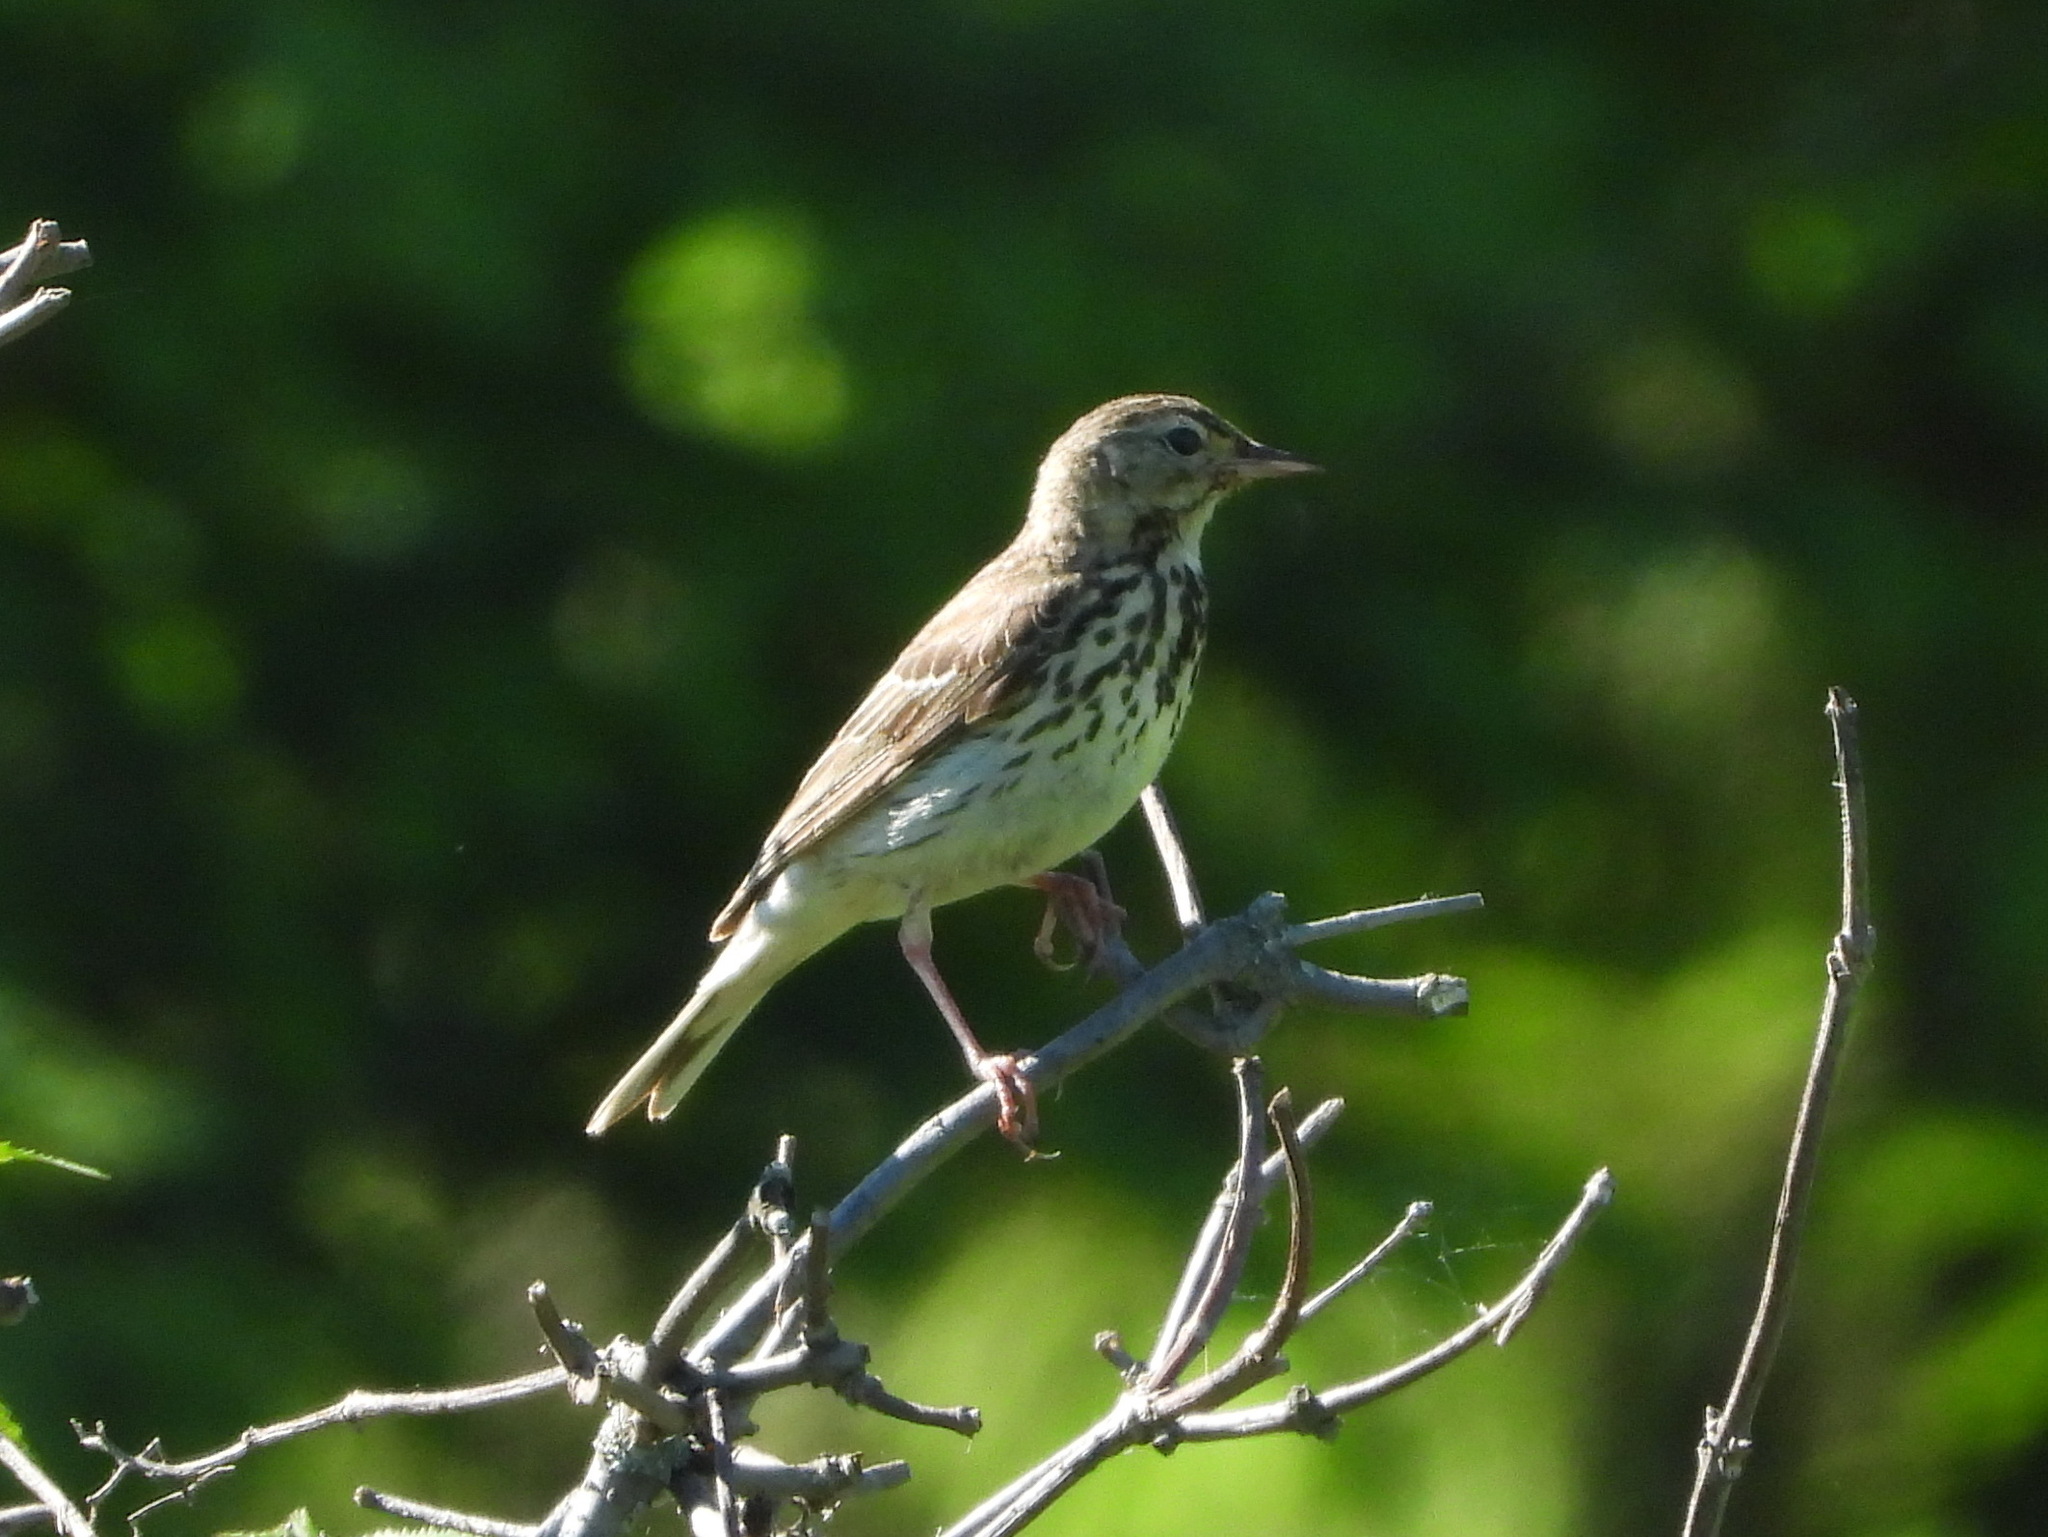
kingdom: Animalia
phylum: Chordata
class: Aves
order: Passeriformes
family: Motacillidae
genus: Anthus
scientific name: Anthus trivialis
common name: Tree pipit
